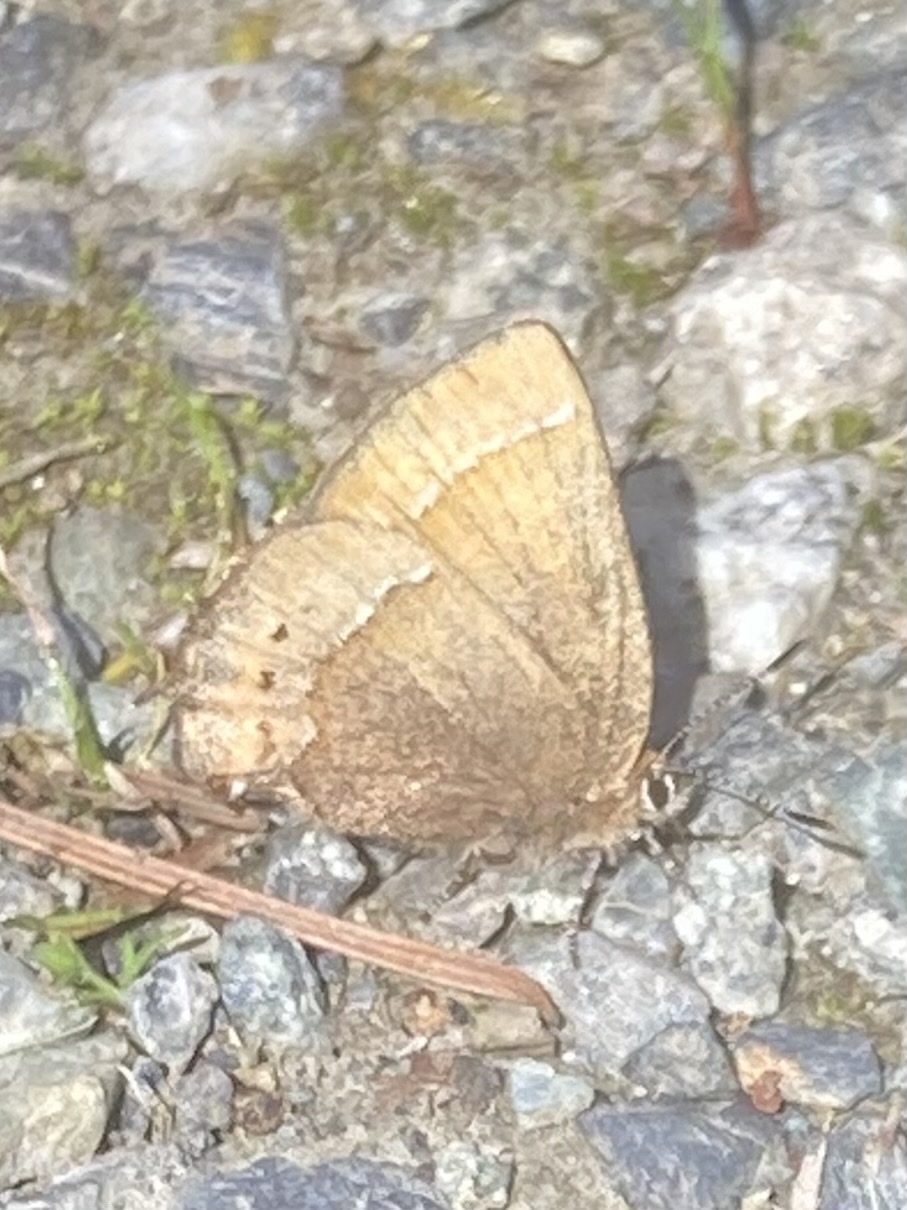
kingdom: Animalia
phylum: Arthropoda
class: Insecta
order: Lepidoptera
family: Lycaenidae
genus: Mitoura
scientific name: Mitoura gryneus
